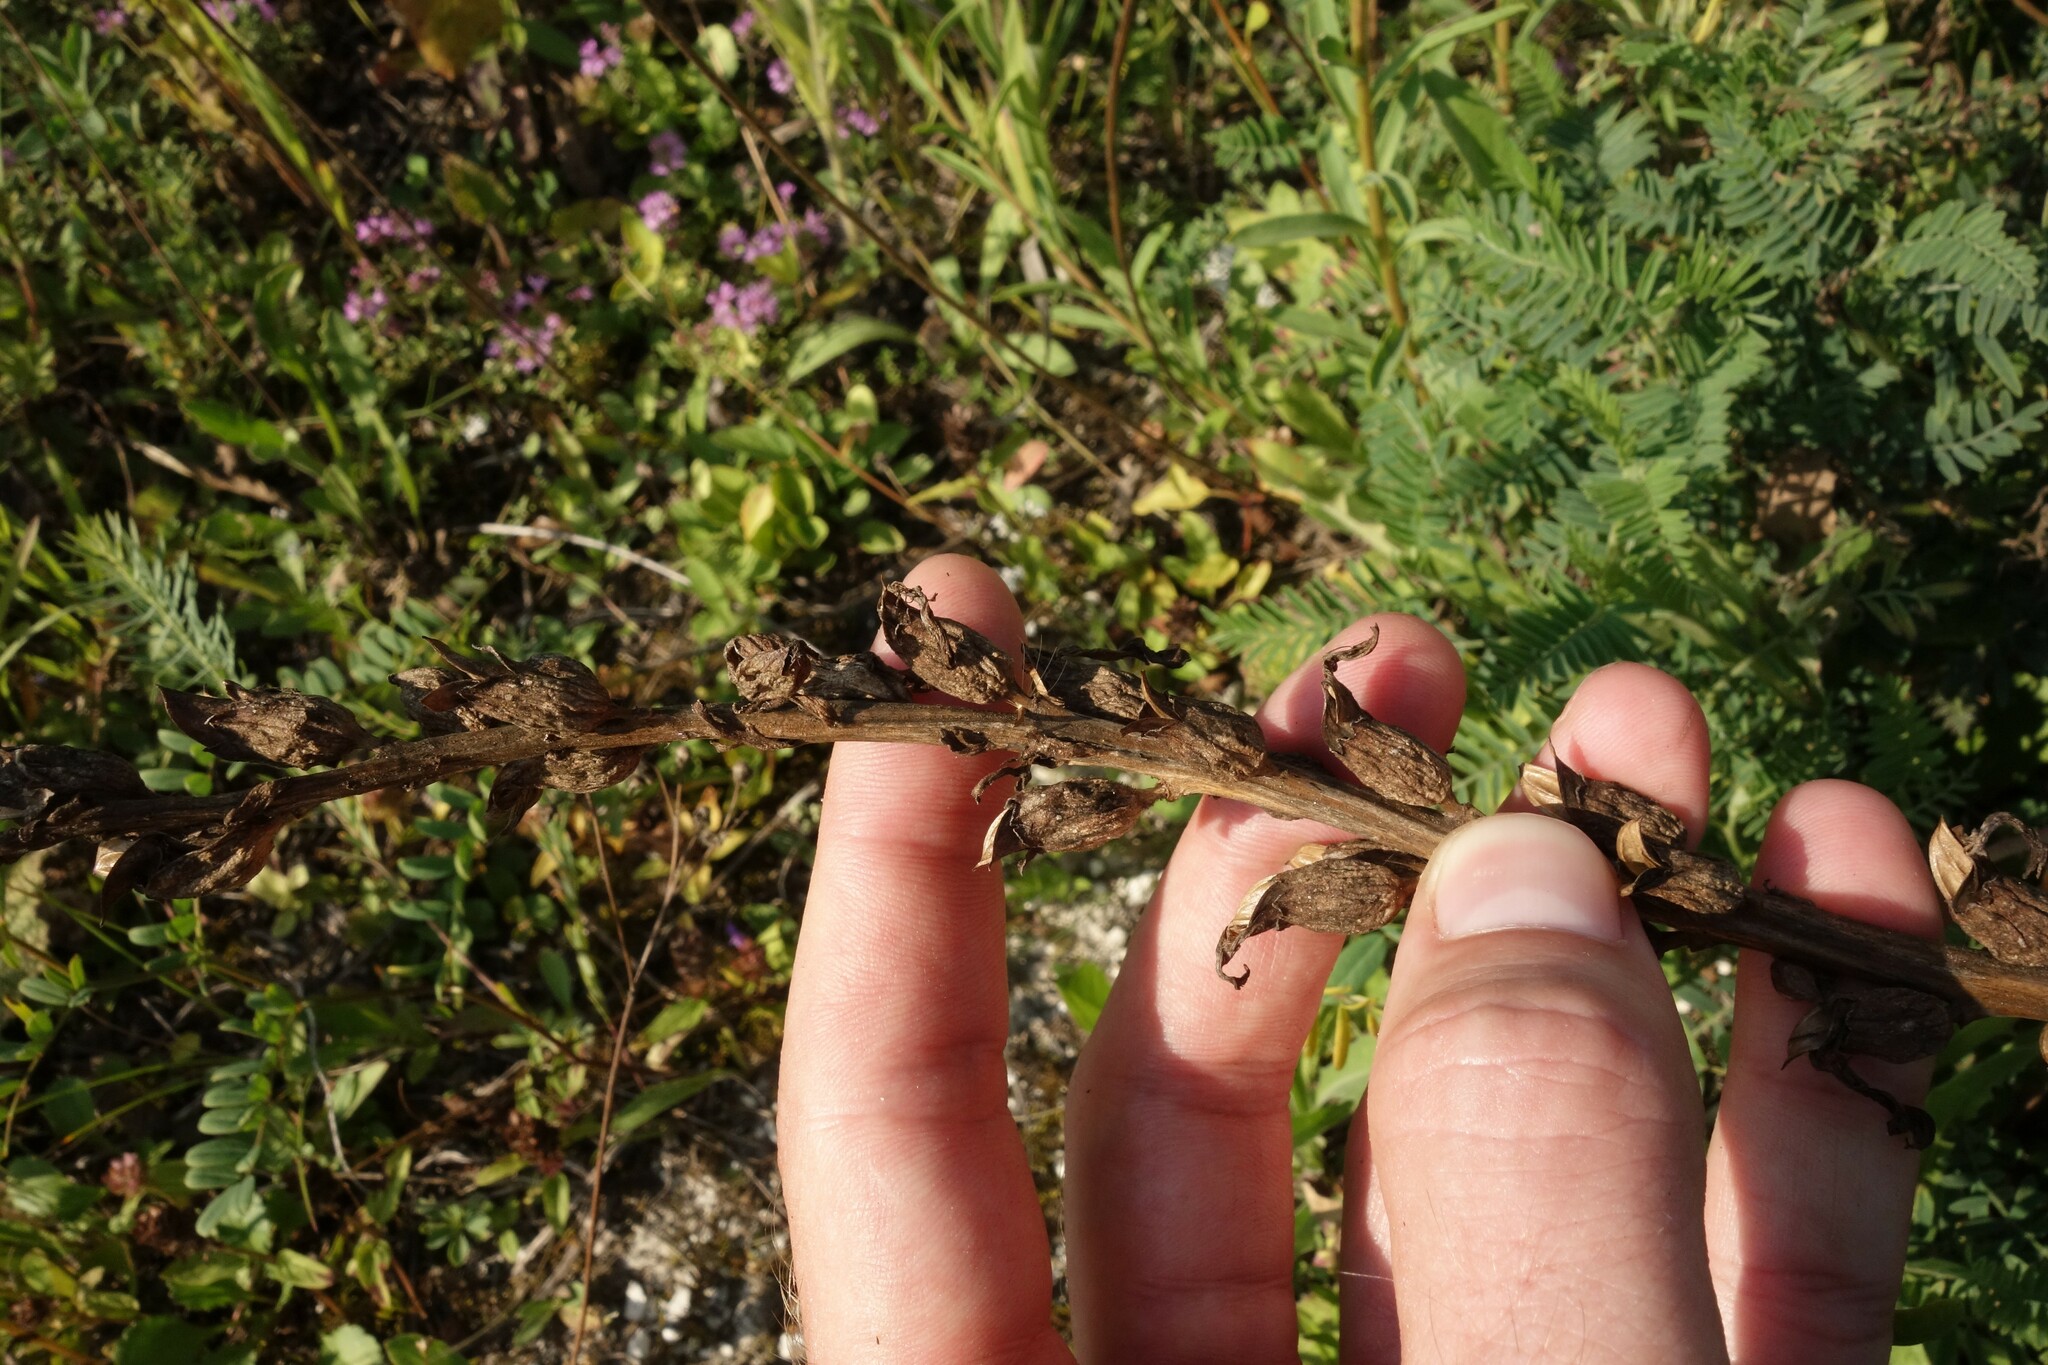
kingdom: Plantae
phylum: Tracheophyta
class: Magnoliopsida
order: Lamiales
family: Orobanchaceae
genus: Pedicularis
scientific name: Pedicularis kaufmannii
